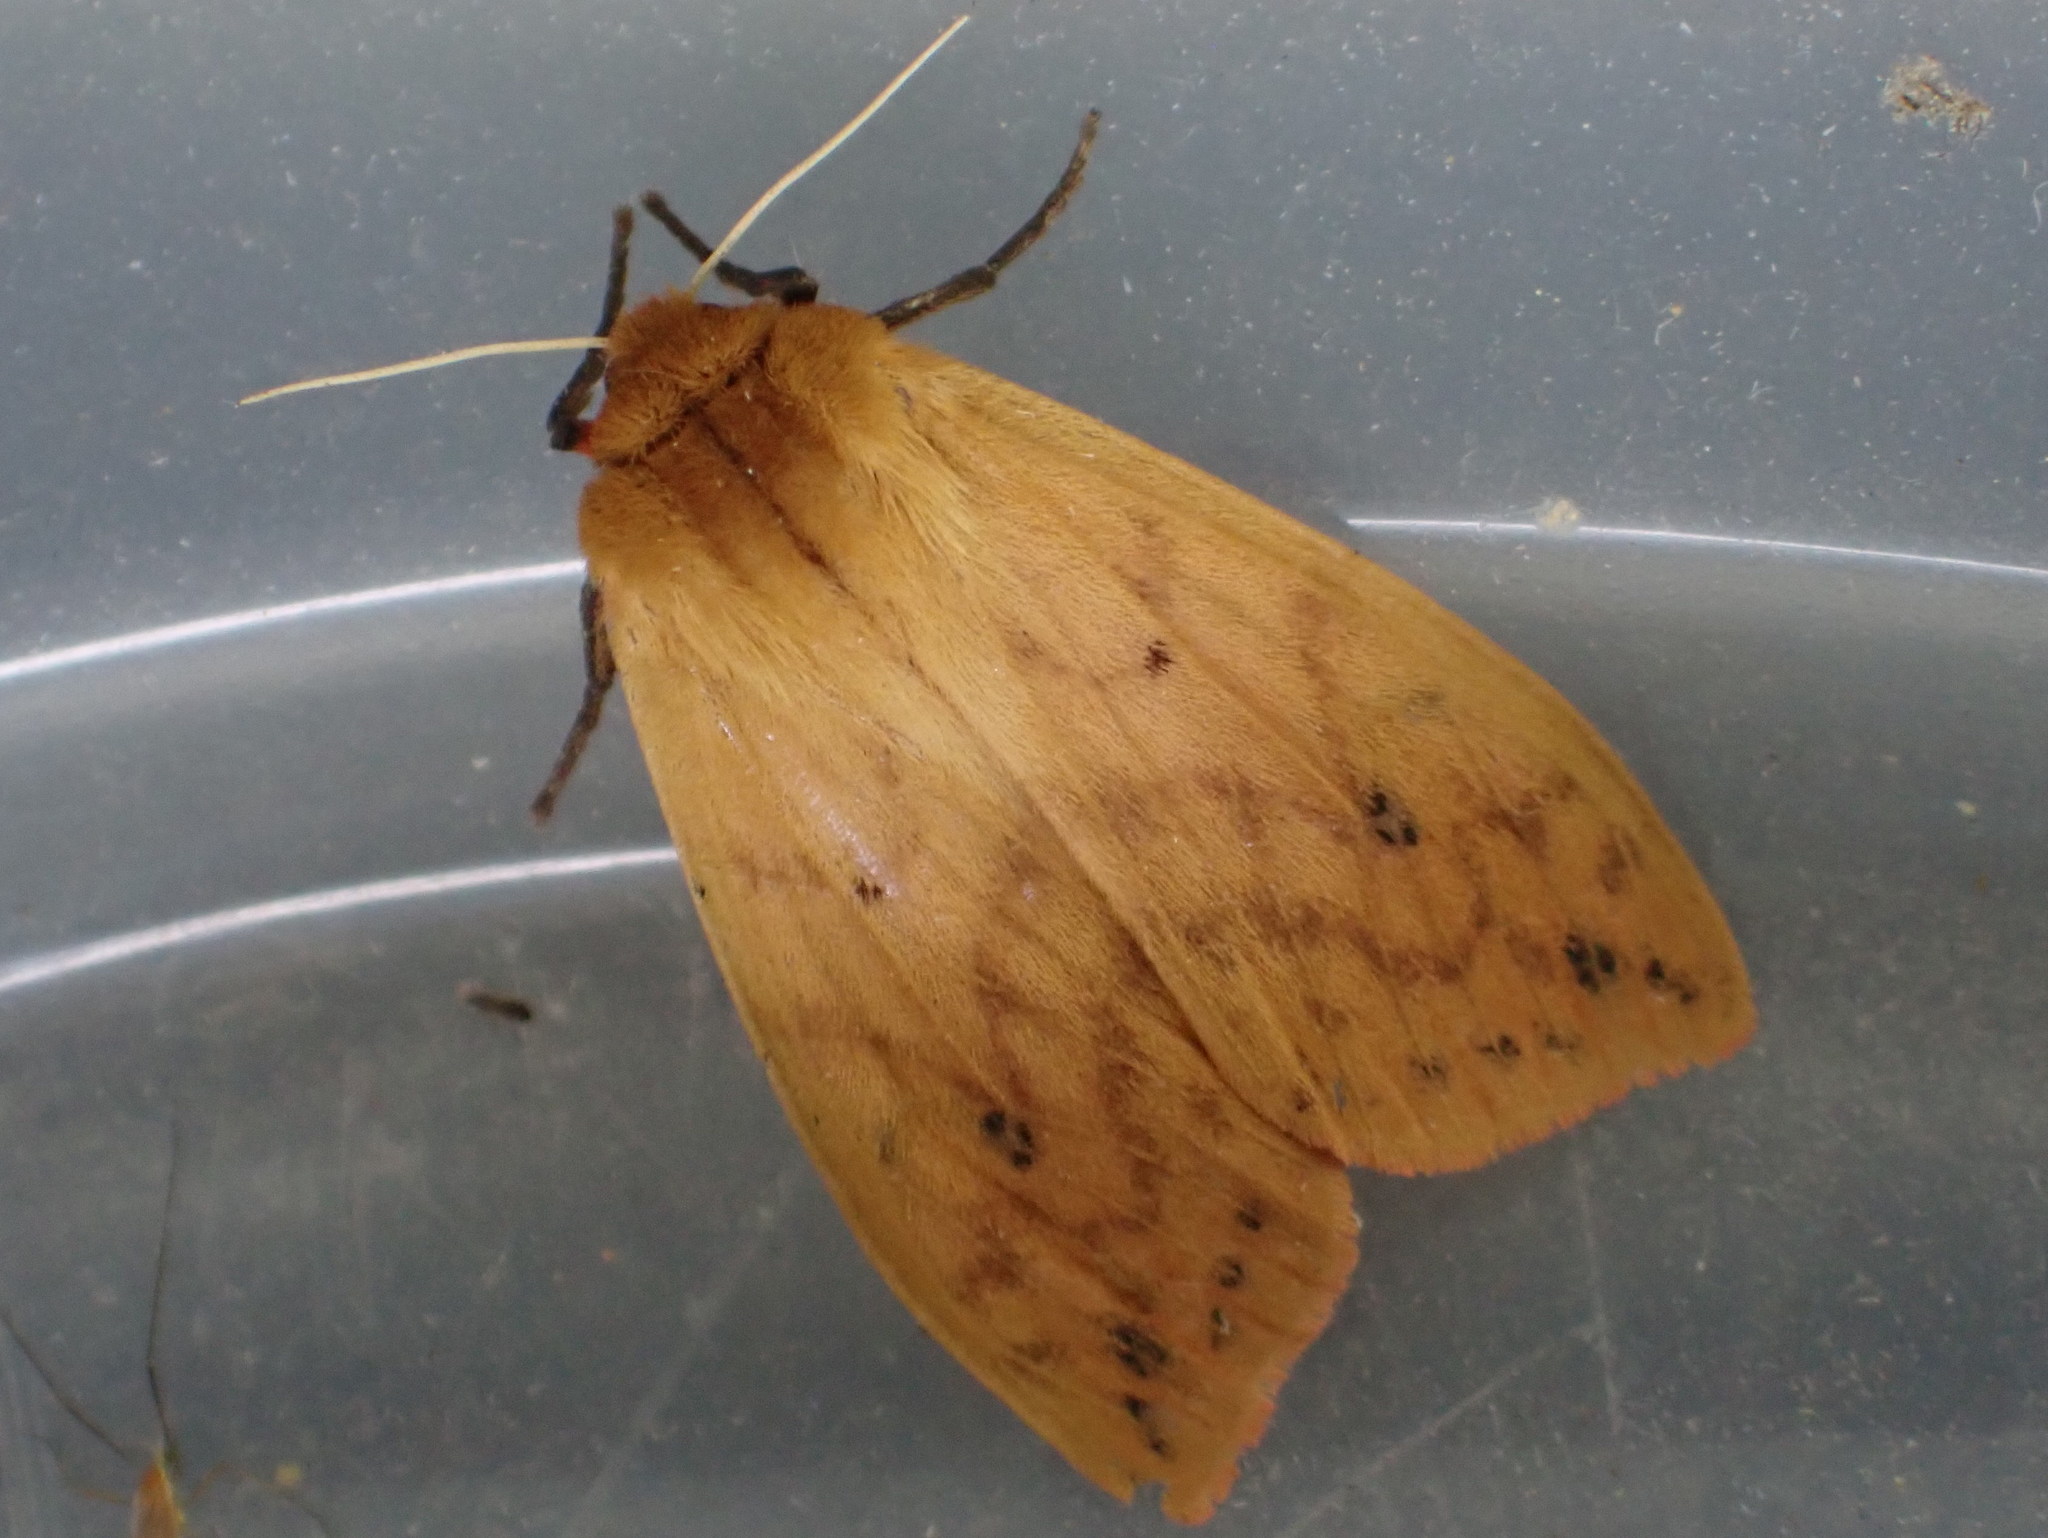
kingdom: Animalia
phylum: Arthropoda
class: Insecta
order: Lepidoptera
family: Erebidae
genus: Pyrrharctia
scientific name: Pyrrharctia isabella
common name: Isabella tiger moth
